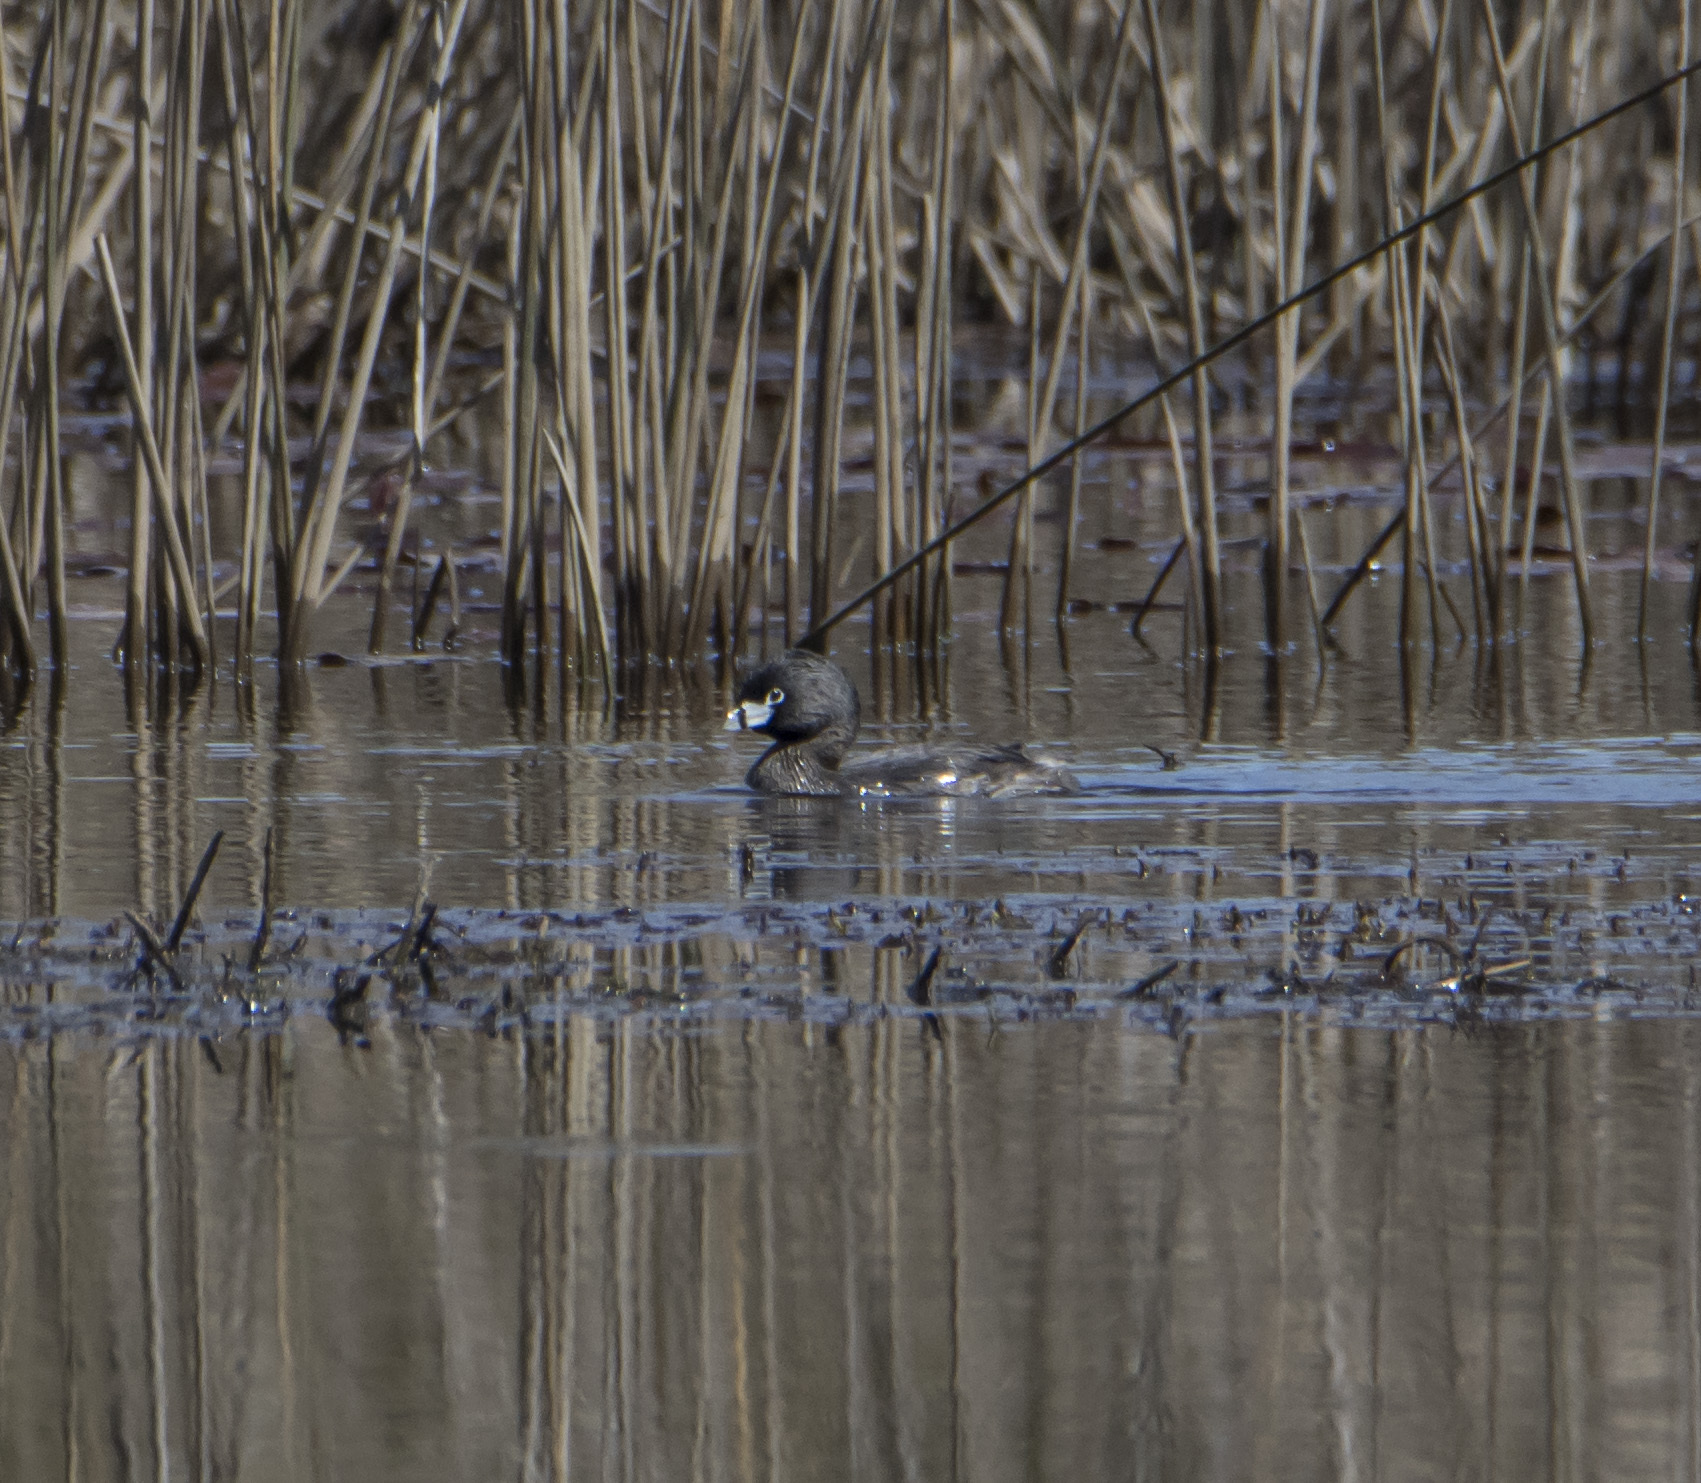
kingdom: Animalia
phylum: Chordata
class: Aves
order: Podicipediformes
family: Podicipedidae
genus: Podilymbus
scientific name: Podilymbus podiceps
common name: Pied-billed grebe
